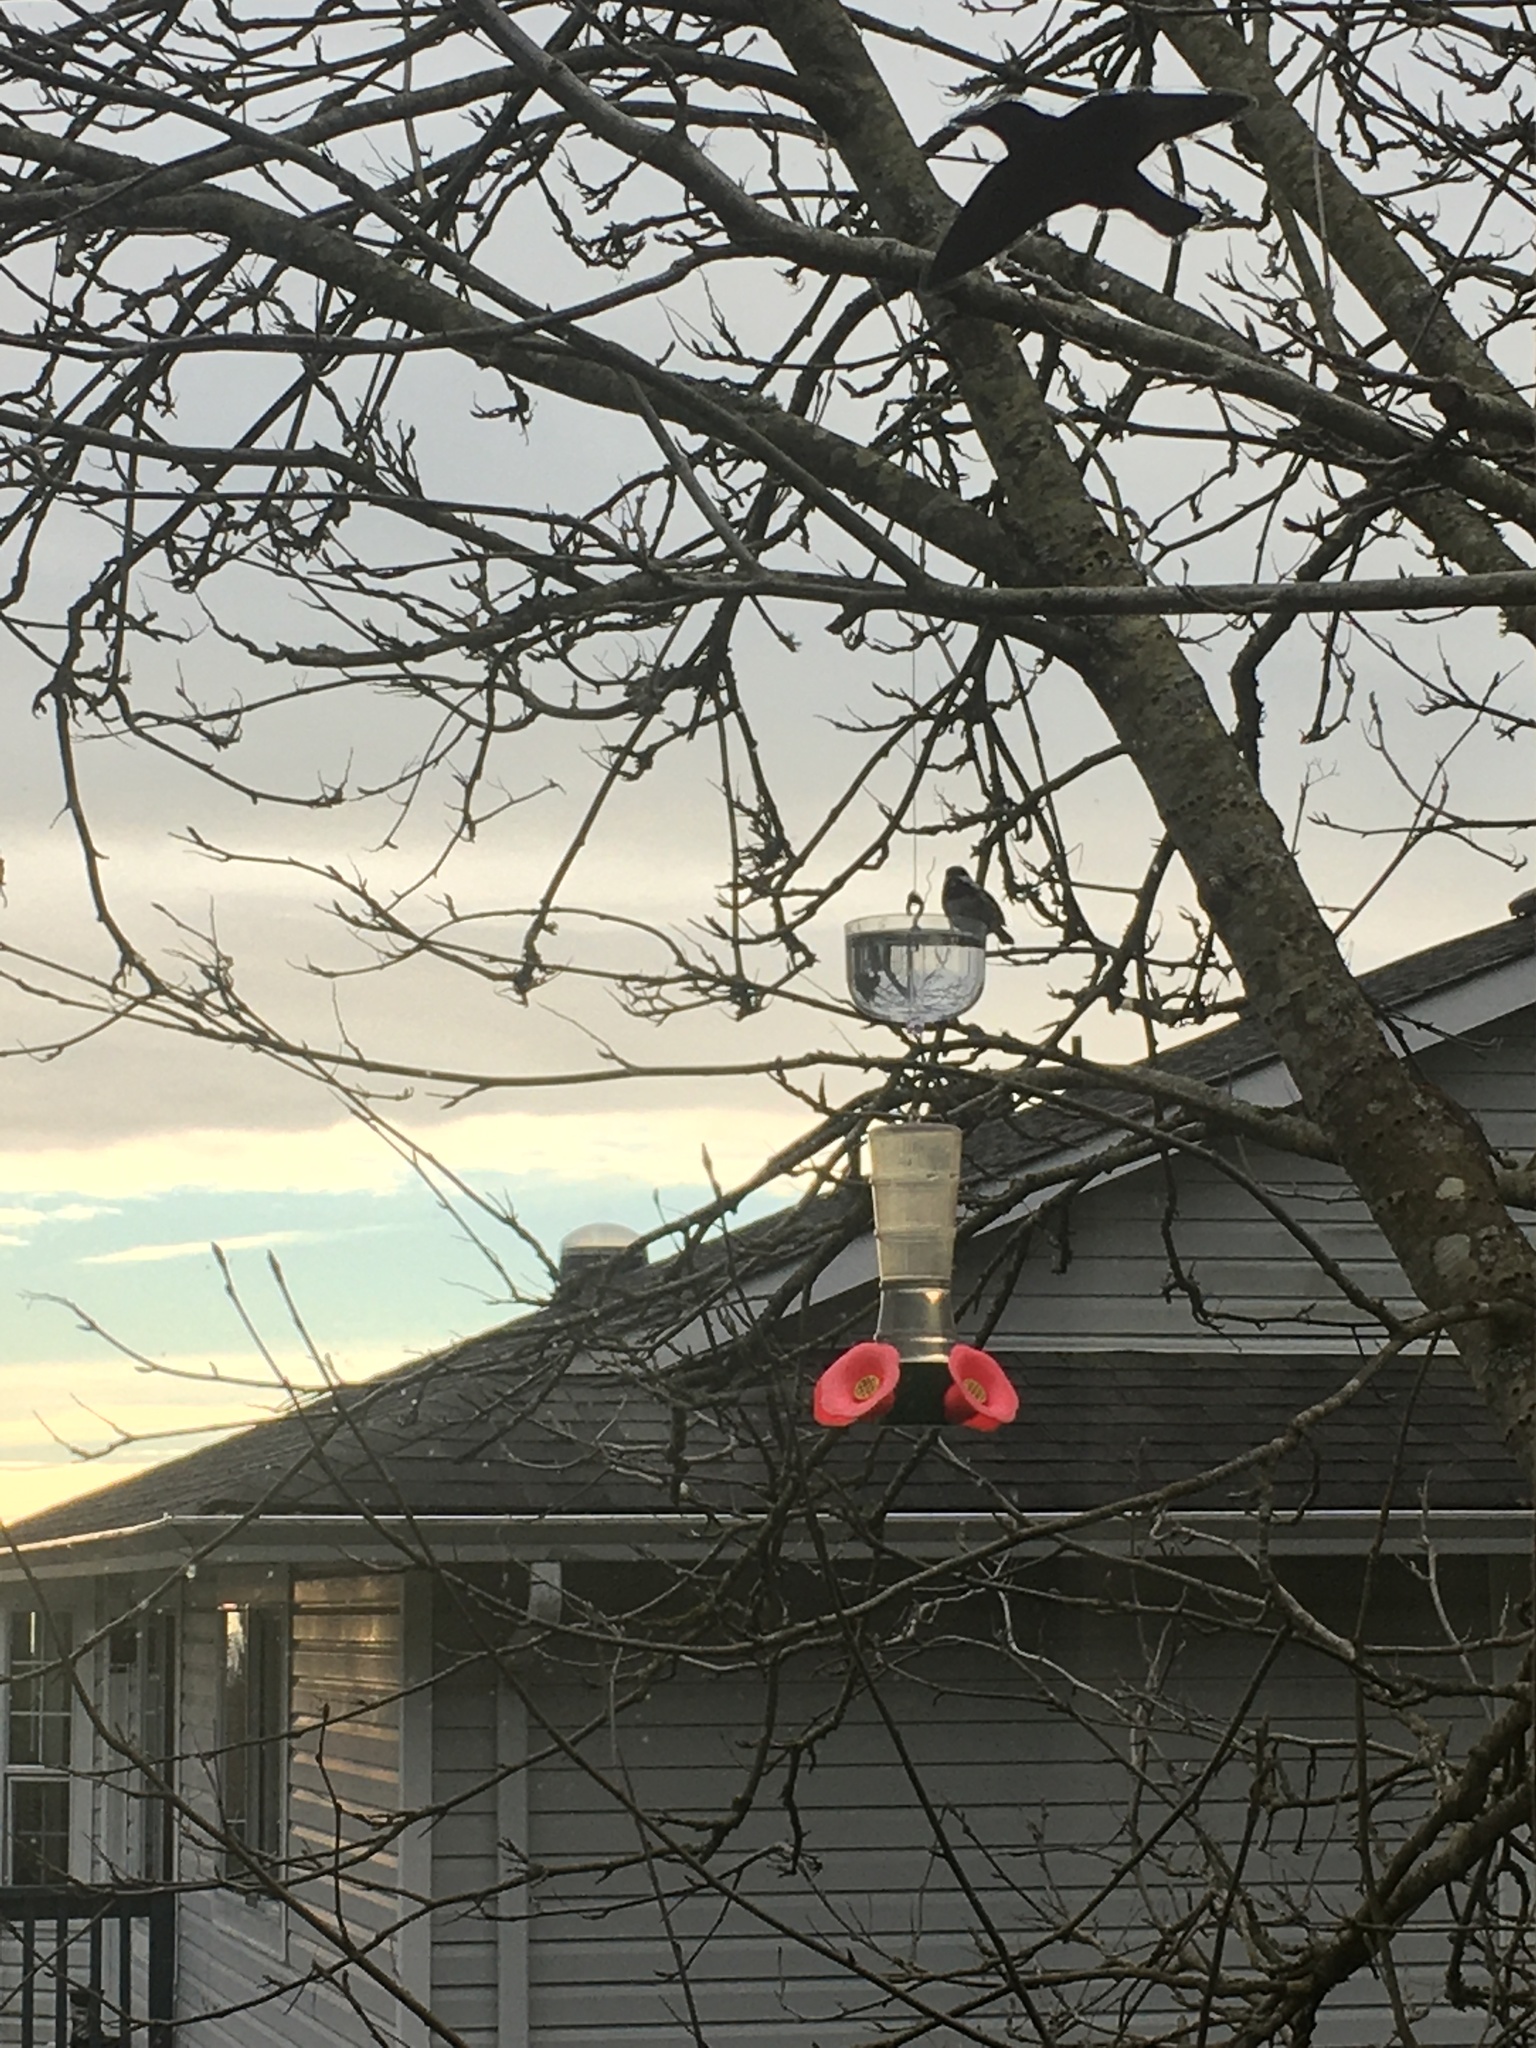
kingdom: Animalia
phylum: Chordata
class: Aves
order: Passeriformes
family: Paridae
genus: Poecile
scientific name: Poecile atricapillus
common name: Black-capped chickadee
